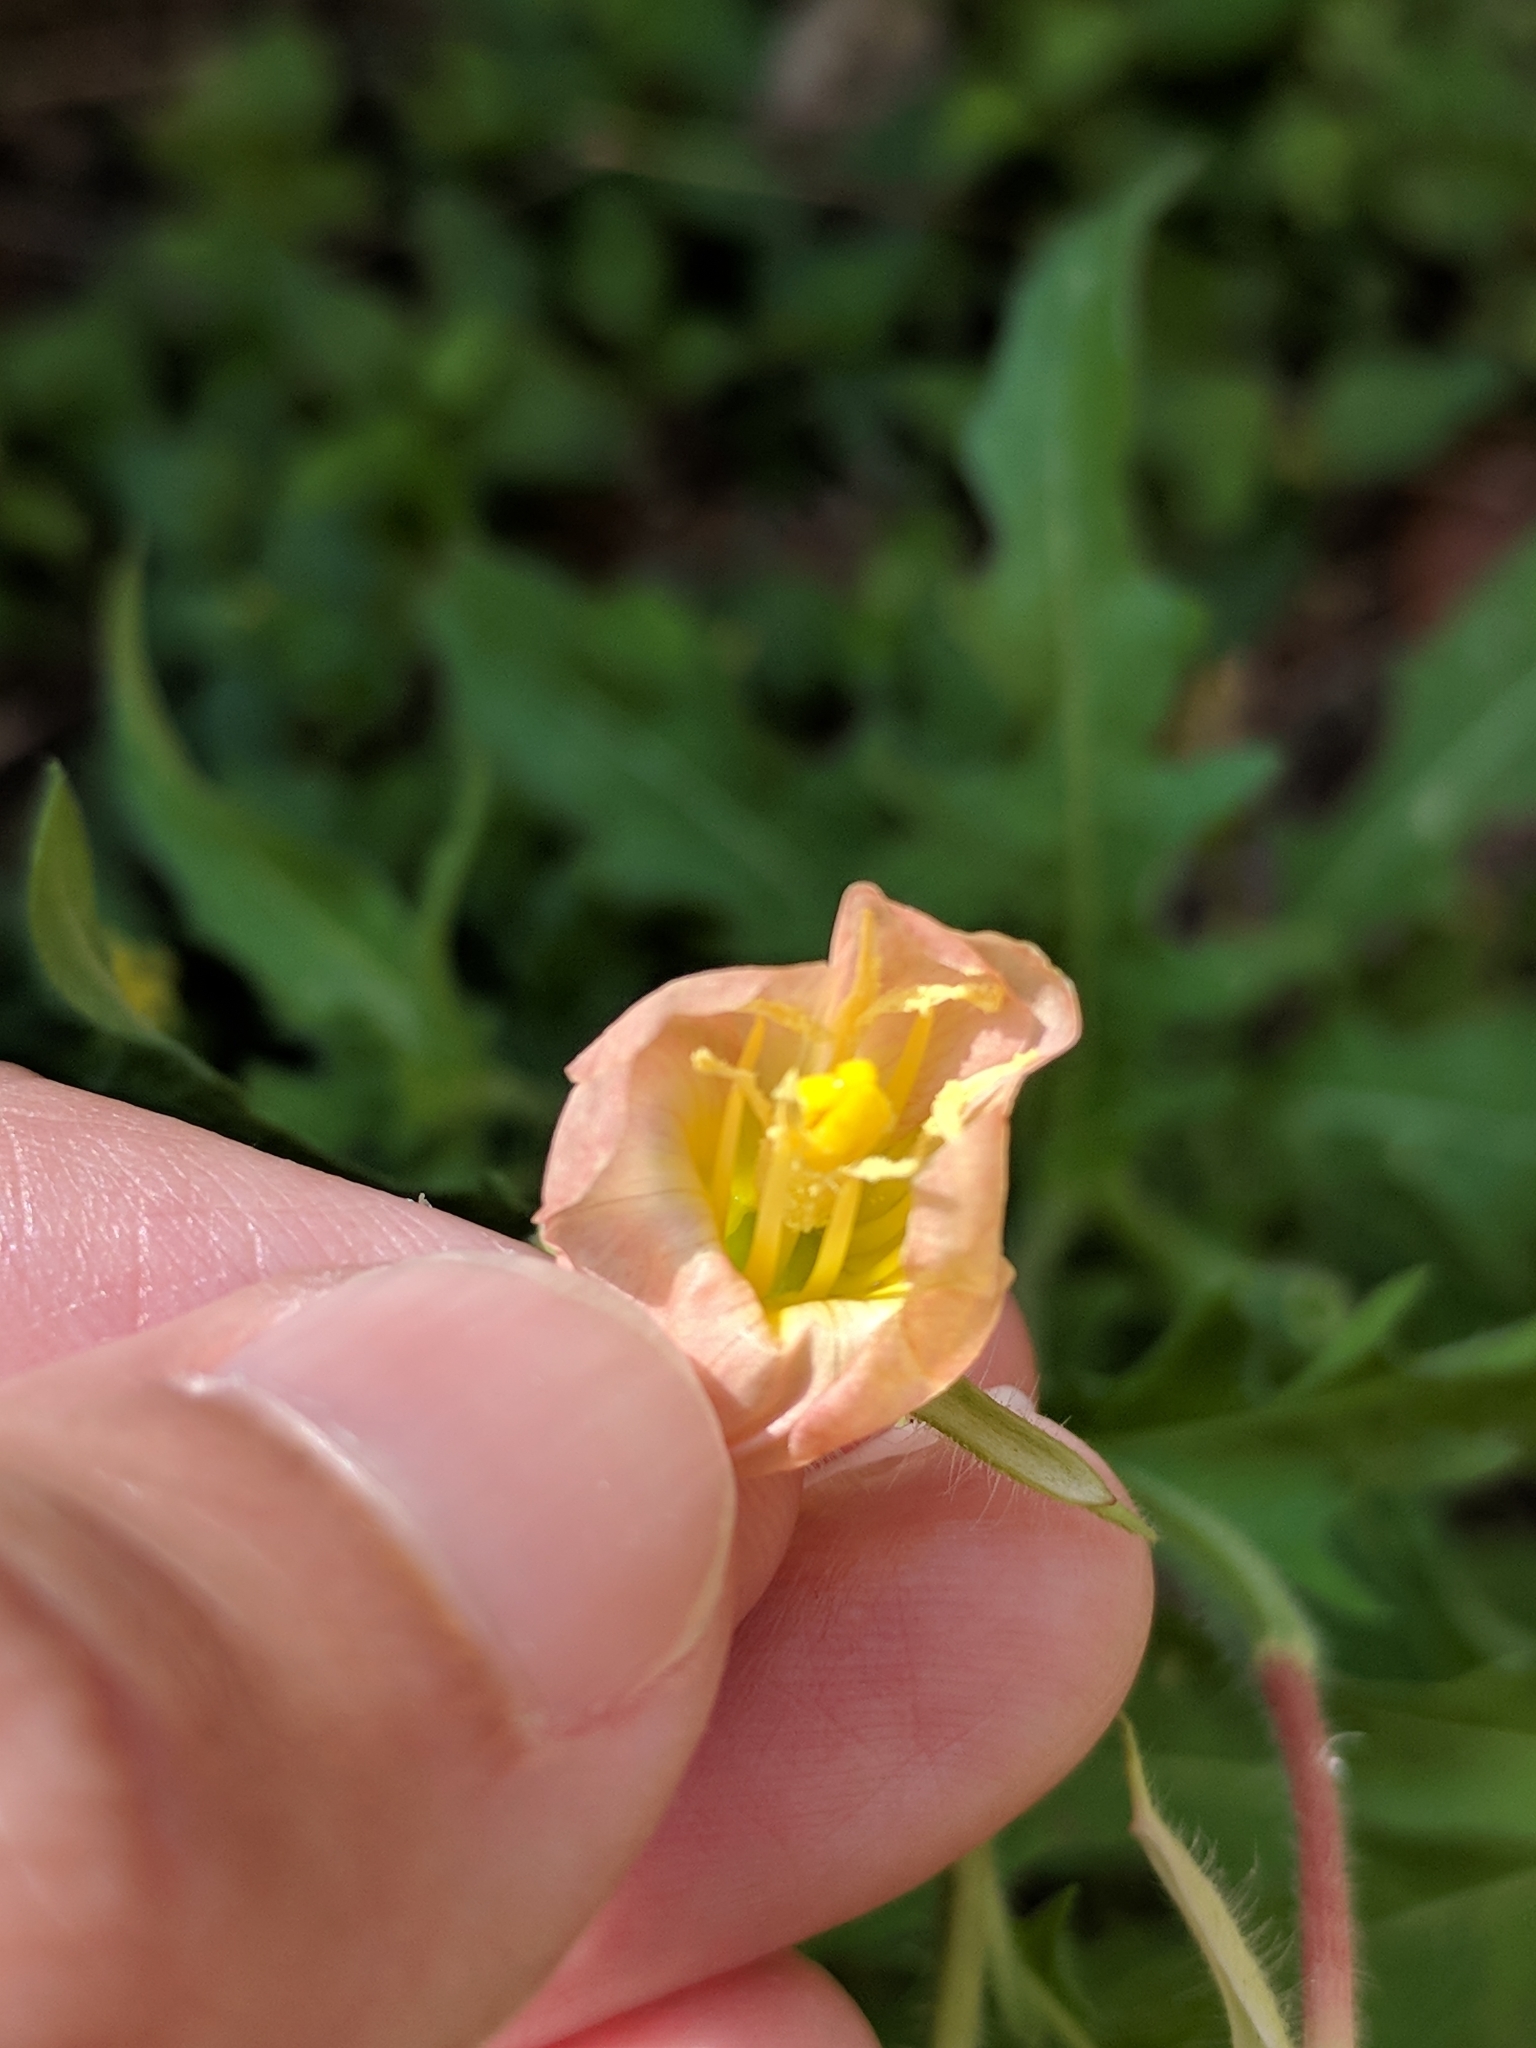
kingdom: Plantae
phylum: Tracheophyta
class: Magnoliopsida
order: Myrtales
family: Onagraceae
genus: Oenothera
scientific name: Oenothera laciniata
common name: Cut-leaved evening-primrose
